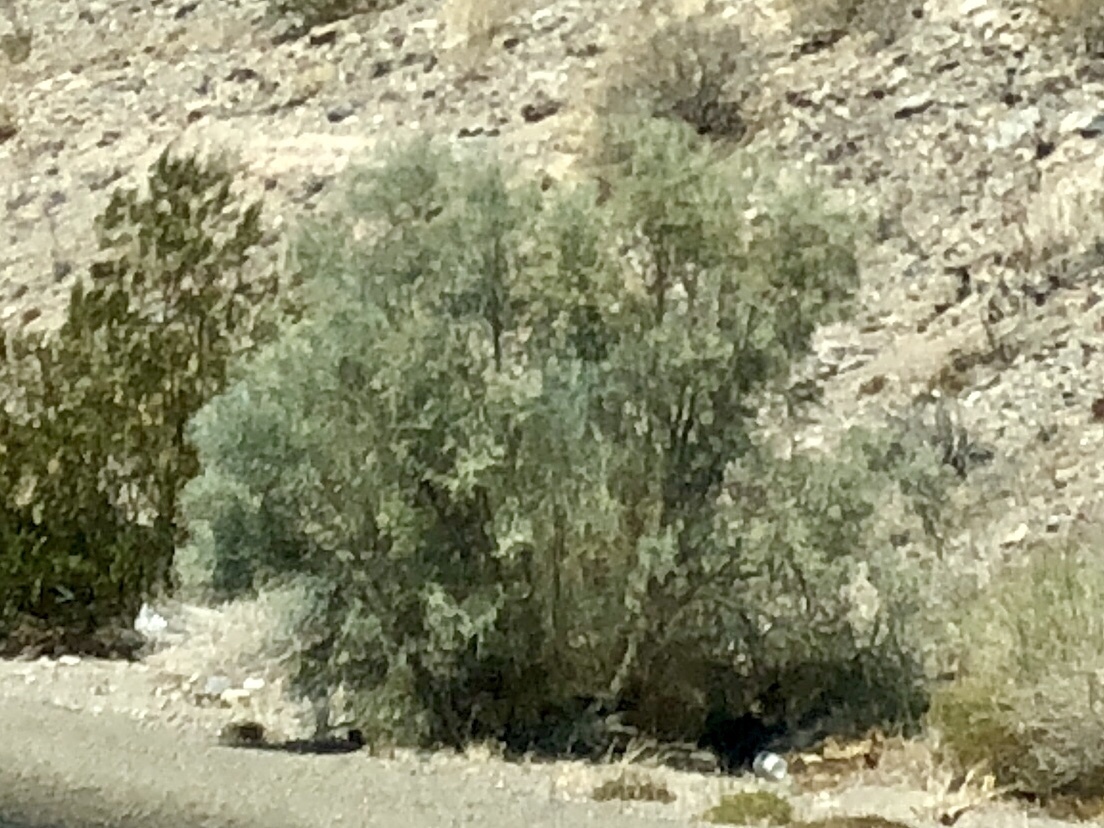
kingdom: Plantae
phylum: Tracheophyta
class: Magnoliopsida
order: Fabales
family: Fabaceae
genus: Psorothamnus
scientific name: Psorothamnus spinosus
